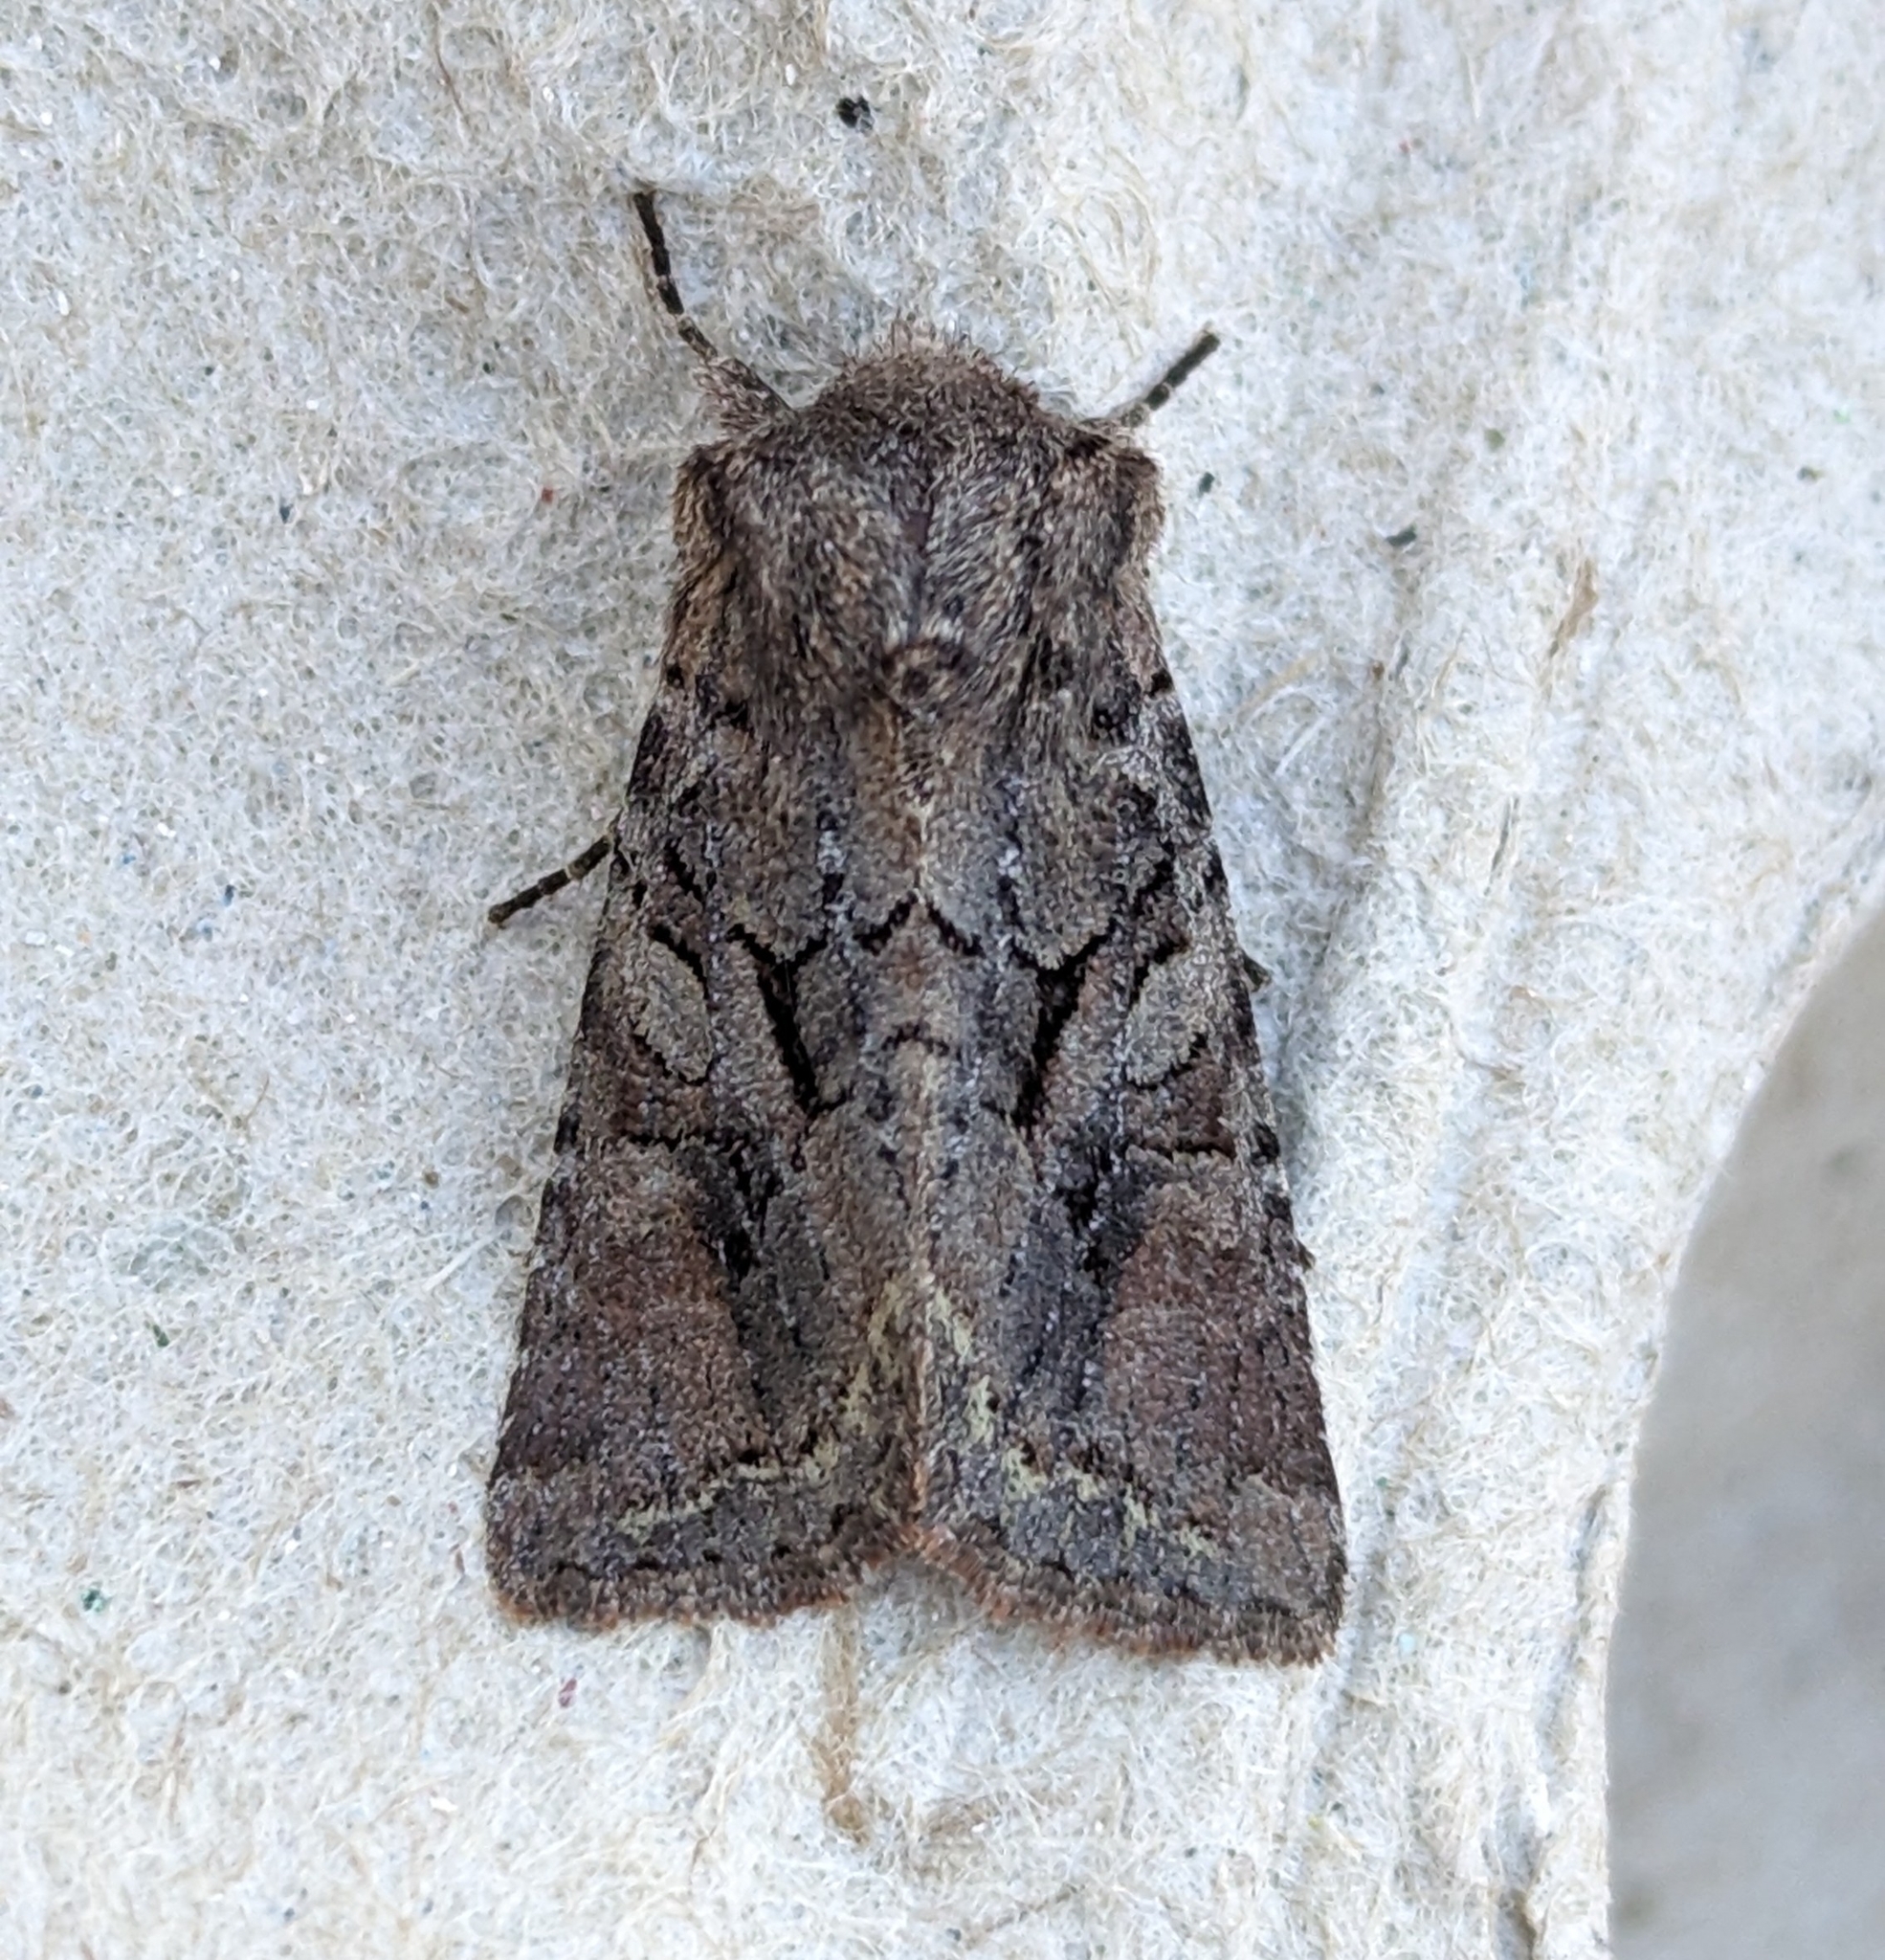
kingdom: Animalia
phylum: Arthropoda
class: Insecta
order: Lepidoptera
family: Noctuidae
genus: Orthosia
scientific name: Orthosia segregata
